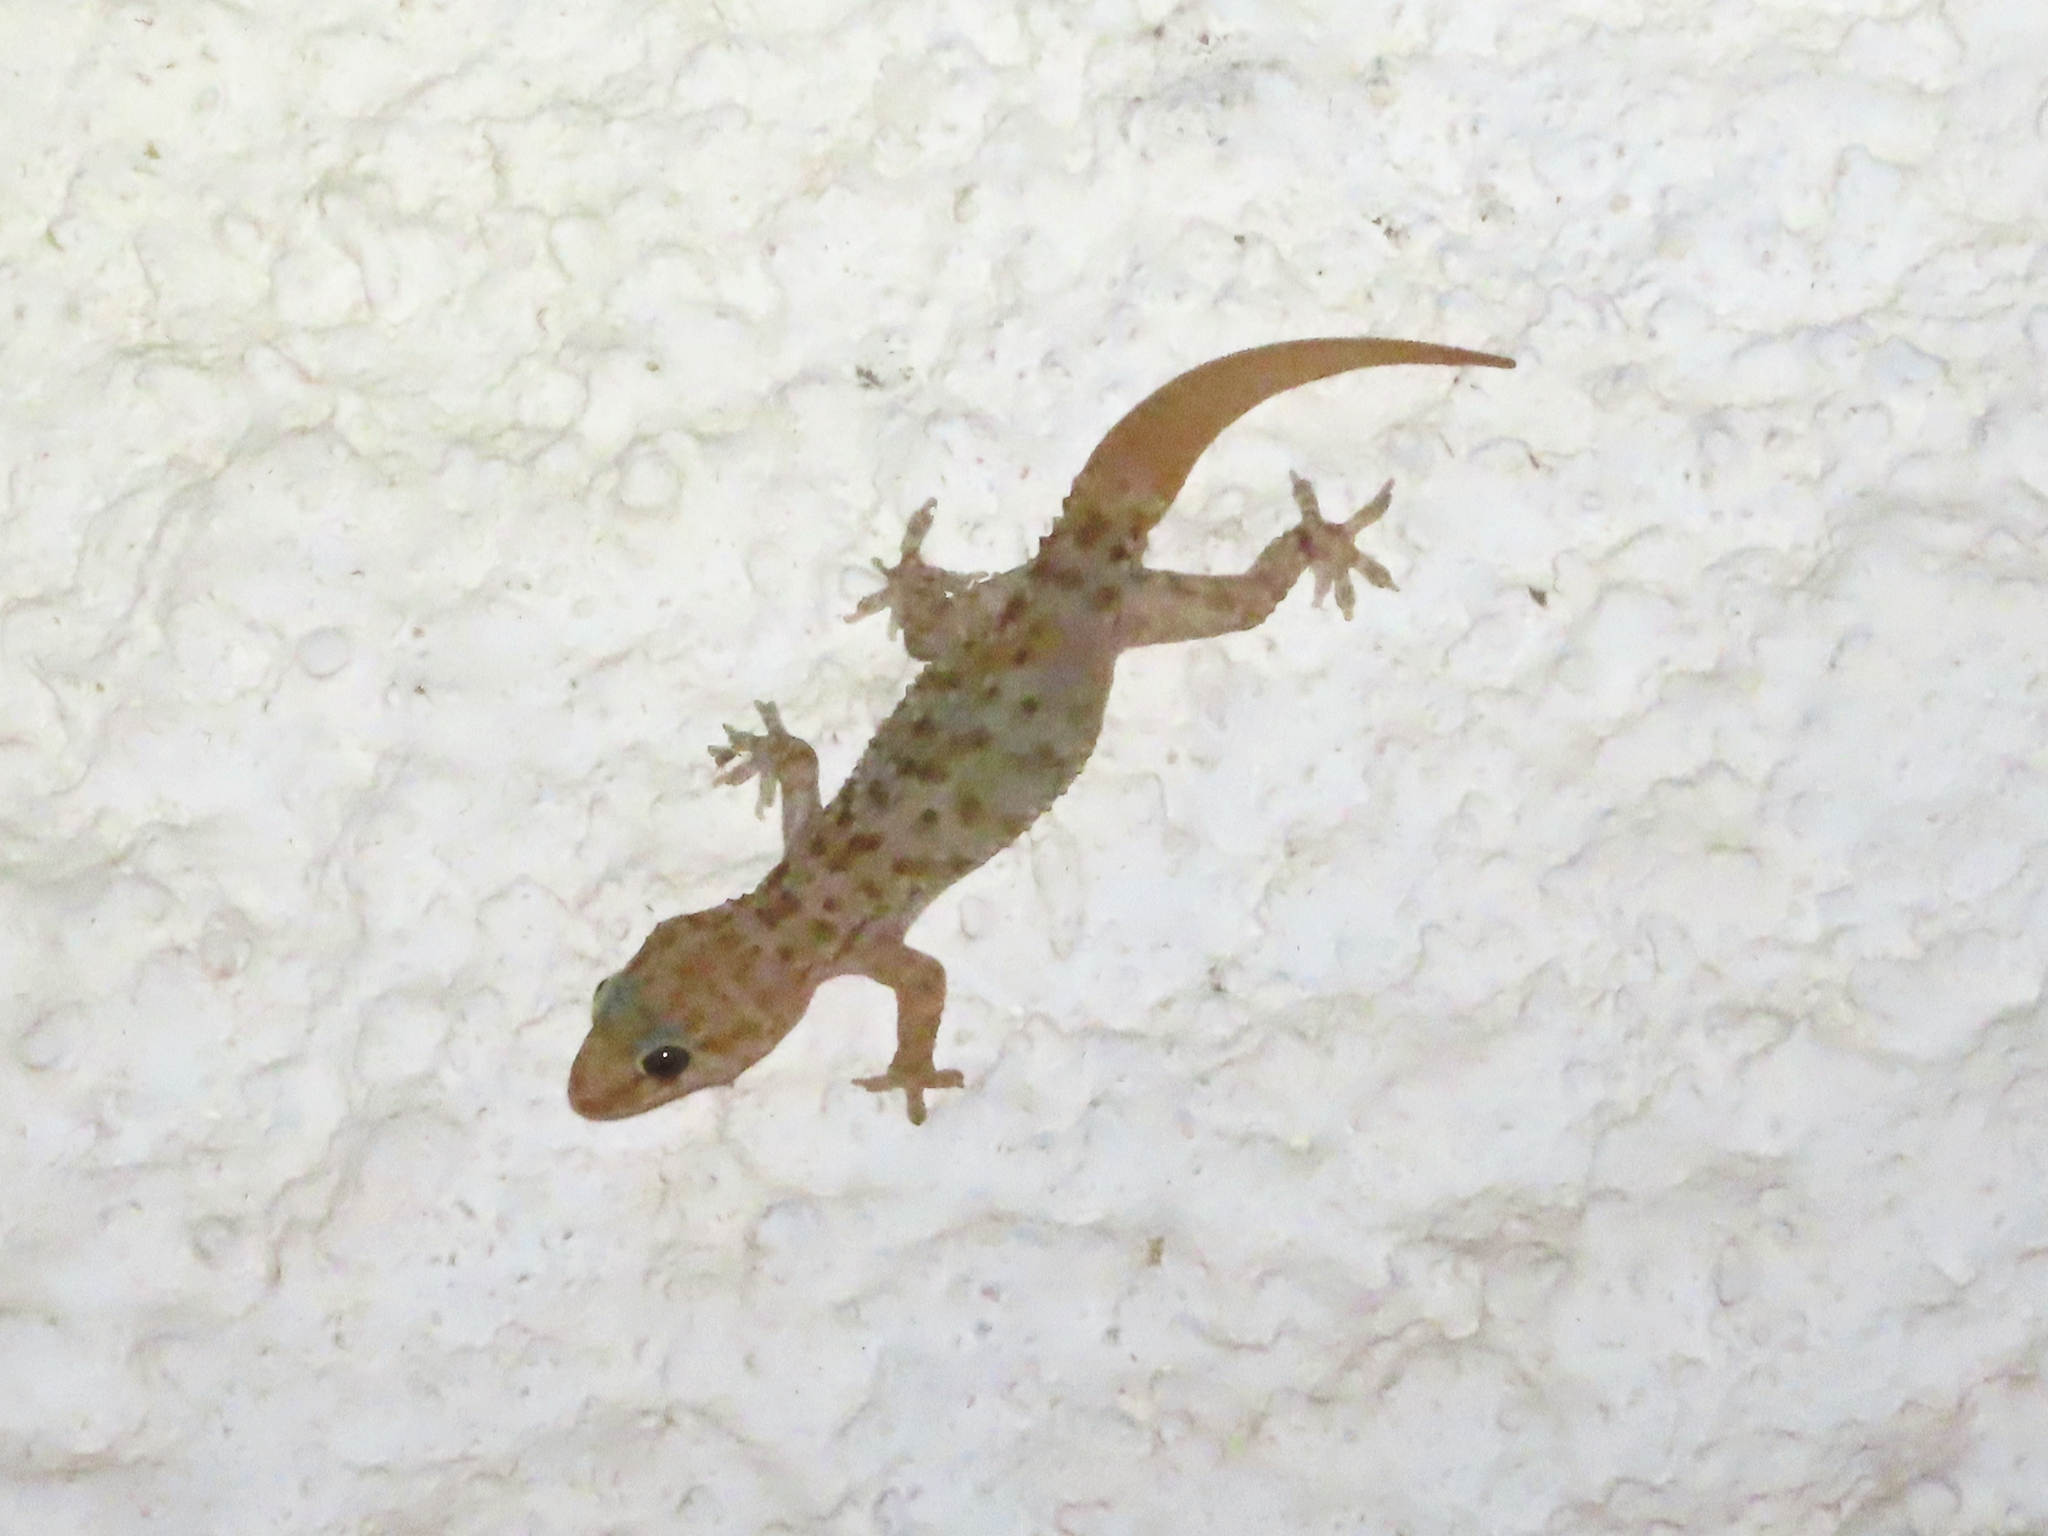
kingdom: Animalia
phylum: Chordata
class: Squamata
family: Gekkonidae
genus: Hemidactylus
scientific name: Hemidactylus turcicus
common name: Turkish gecko
